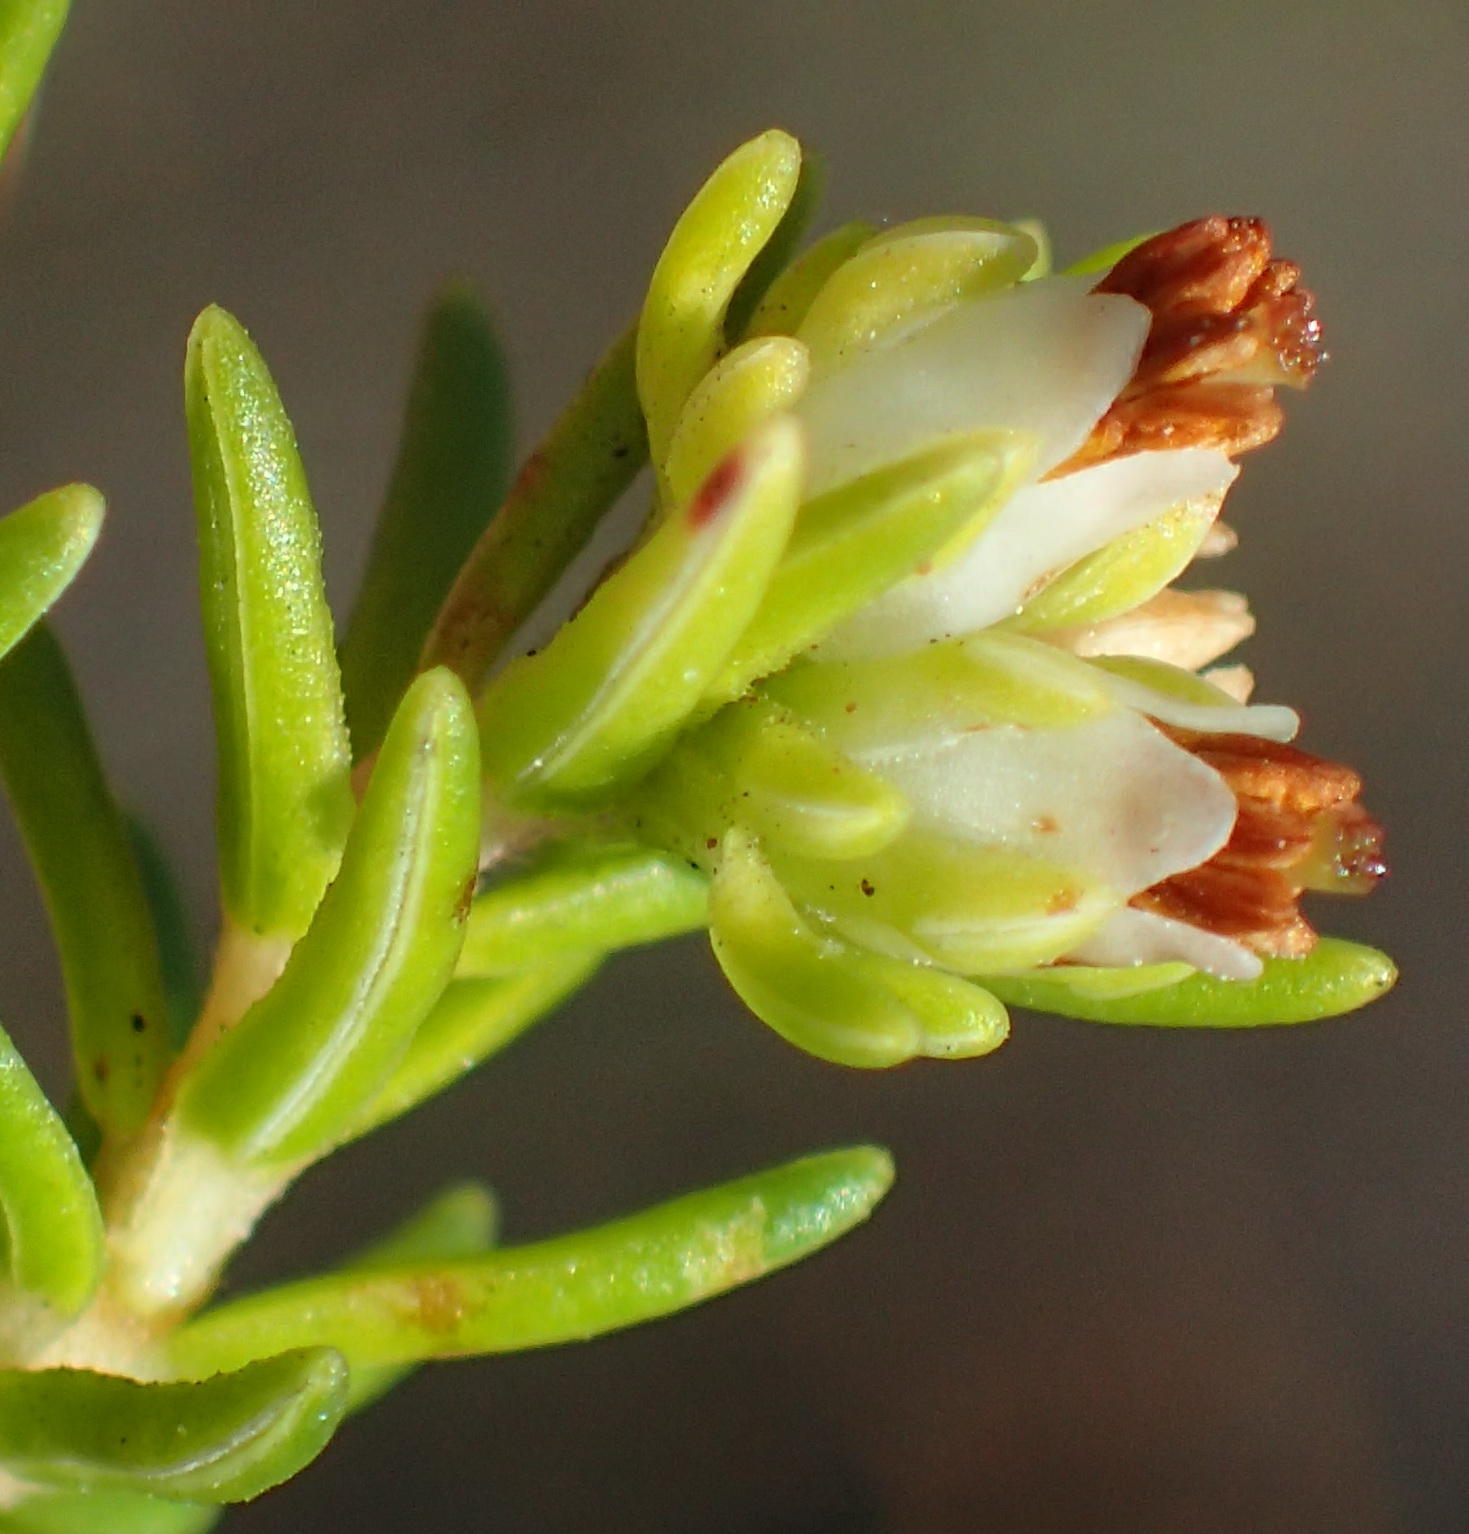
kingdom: Plantae
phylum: Tracheophyta
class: Magnoliopsida
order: Ericales
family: Ericaceae
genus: Erica
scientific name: Erica glumiflora
